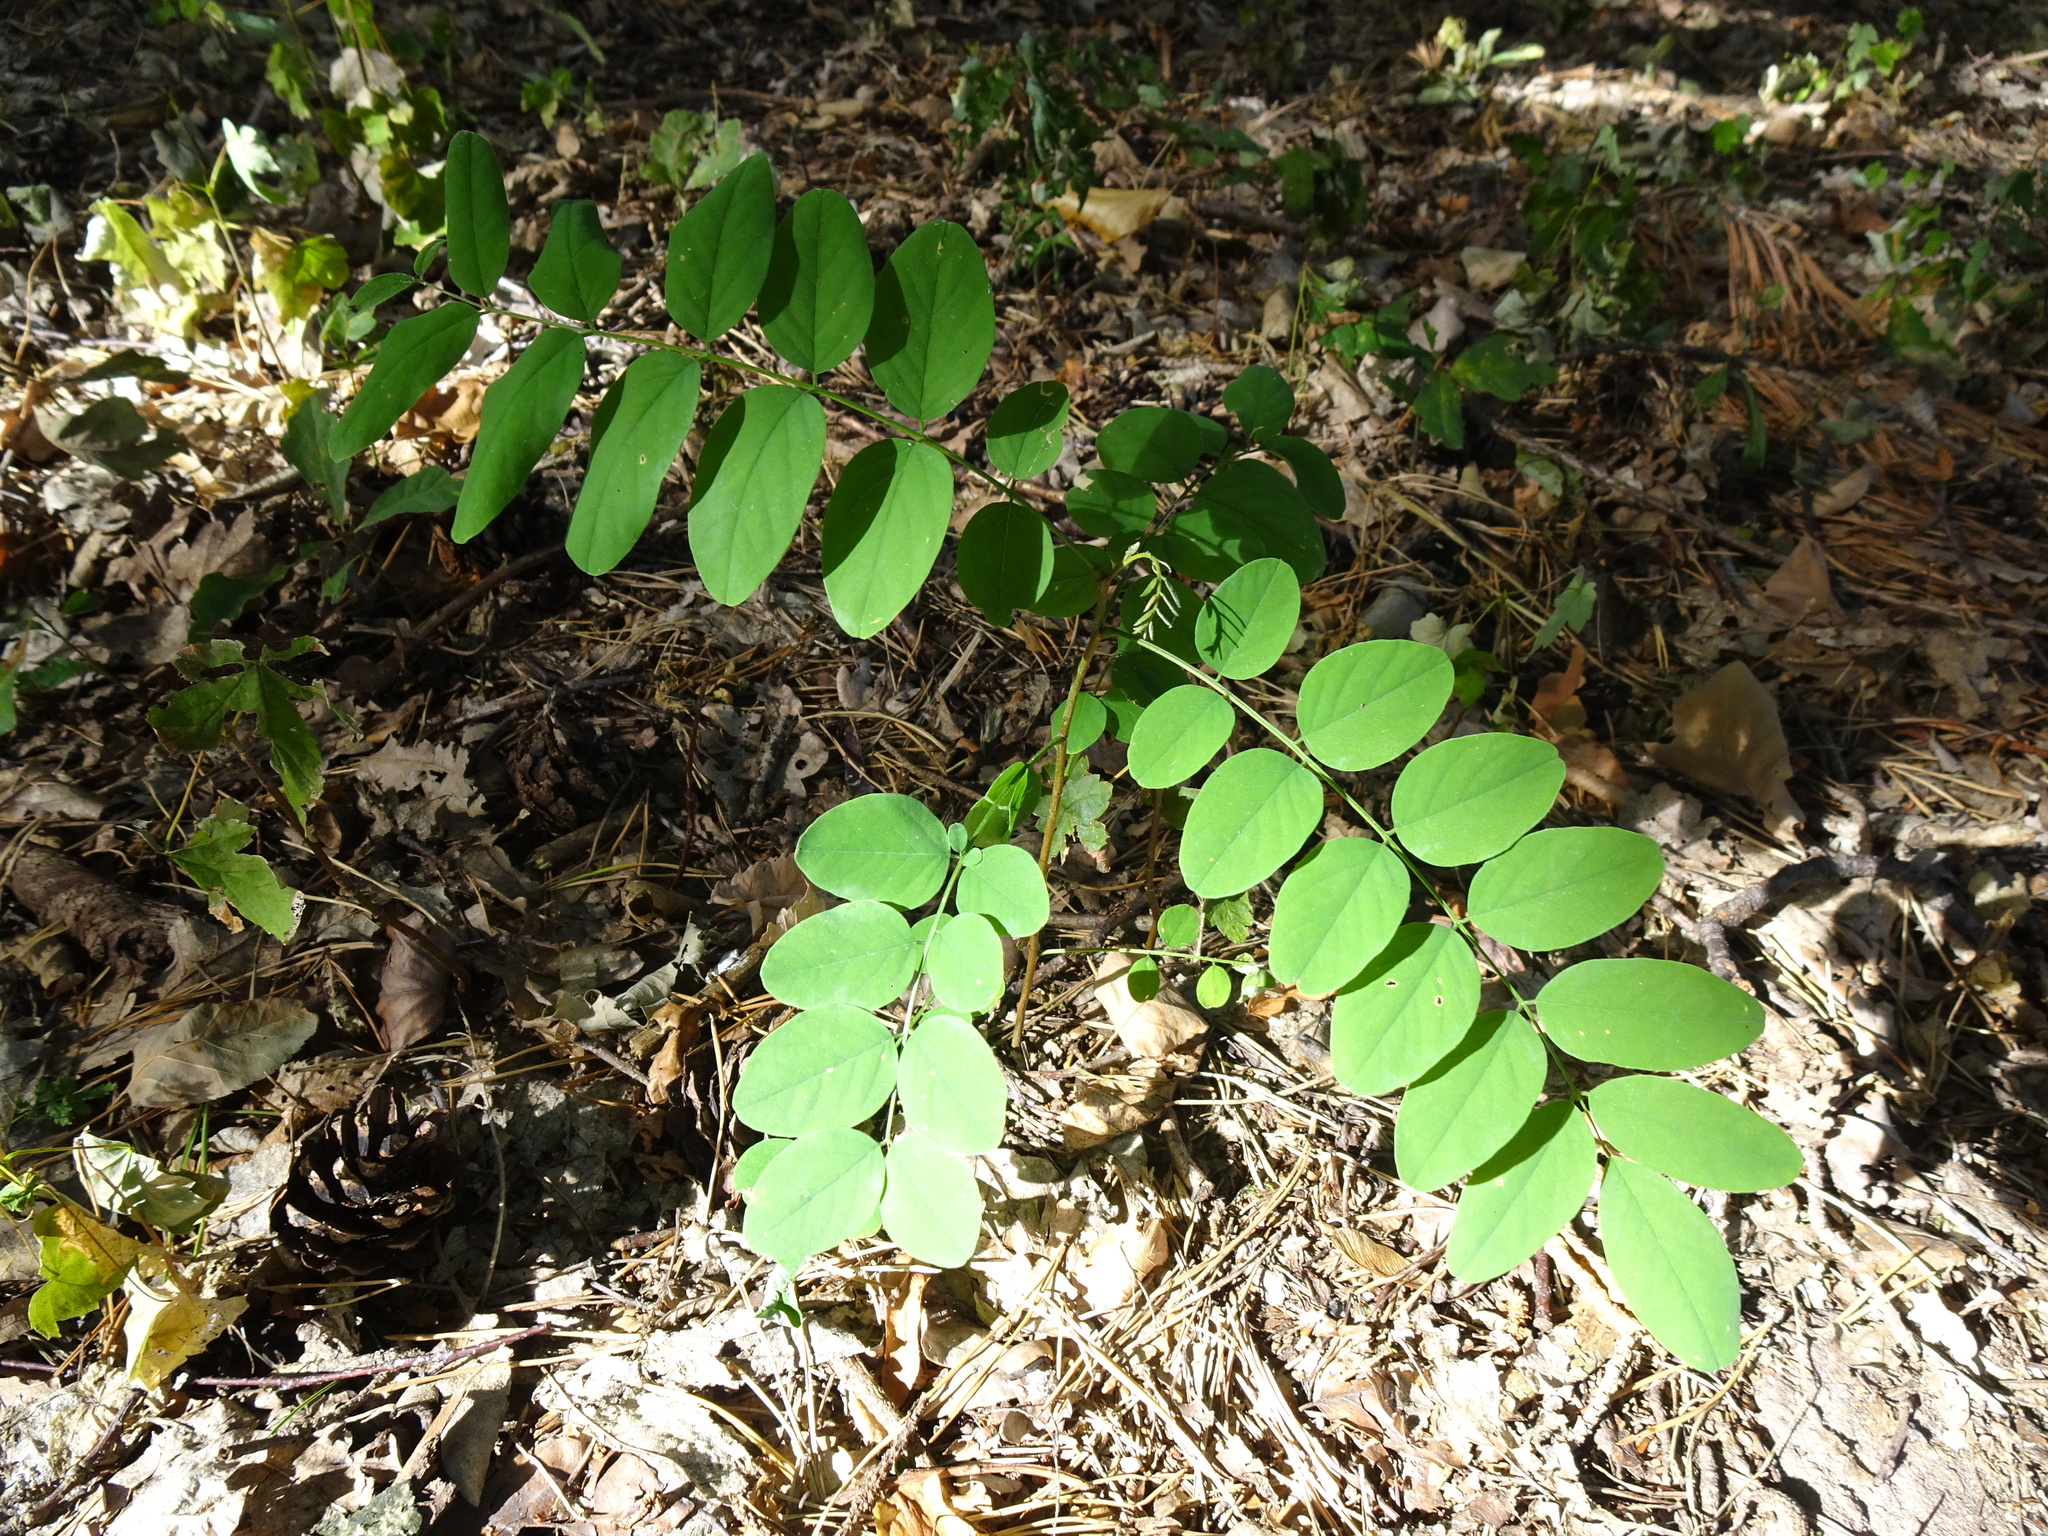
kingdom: Plantae
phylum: Tracheophyta
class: Magnoliopsida
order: Fabales
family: Fabaceae
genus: Robinia
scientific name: Robinia pseudoacacia
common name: Black locust
